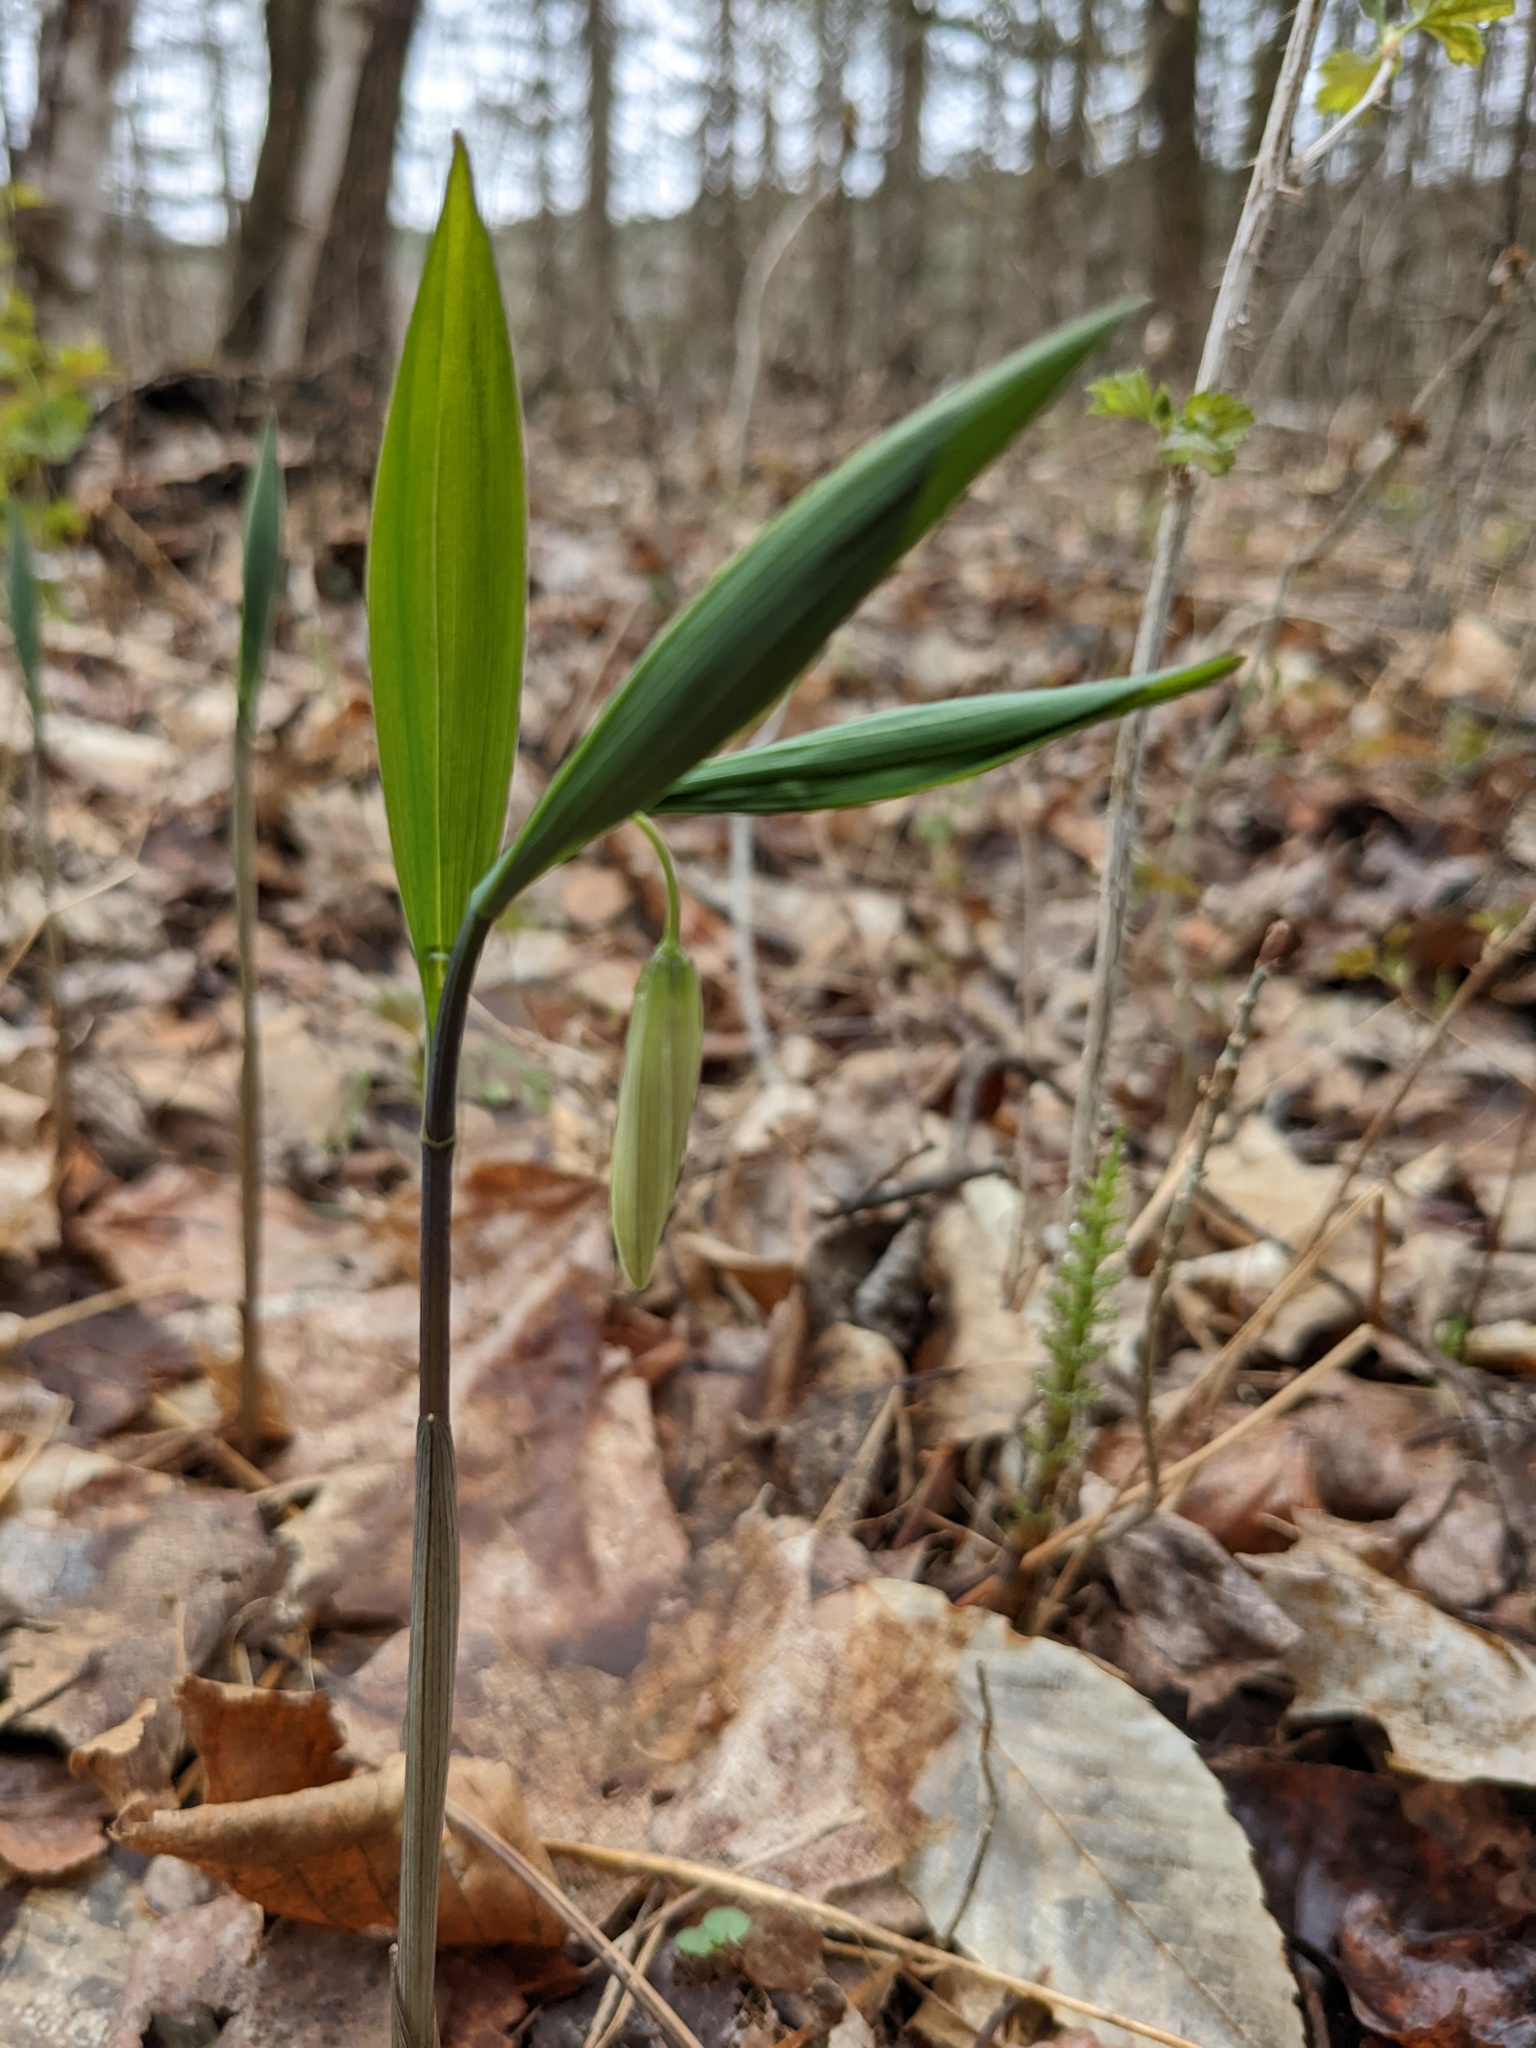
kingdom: Plantae
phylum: Tracheophyta
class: Liliopsida
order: Liliales
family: Colchicaceae
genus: Uvularia
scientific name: Uvularia sessilifolia
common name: Straw-lily
